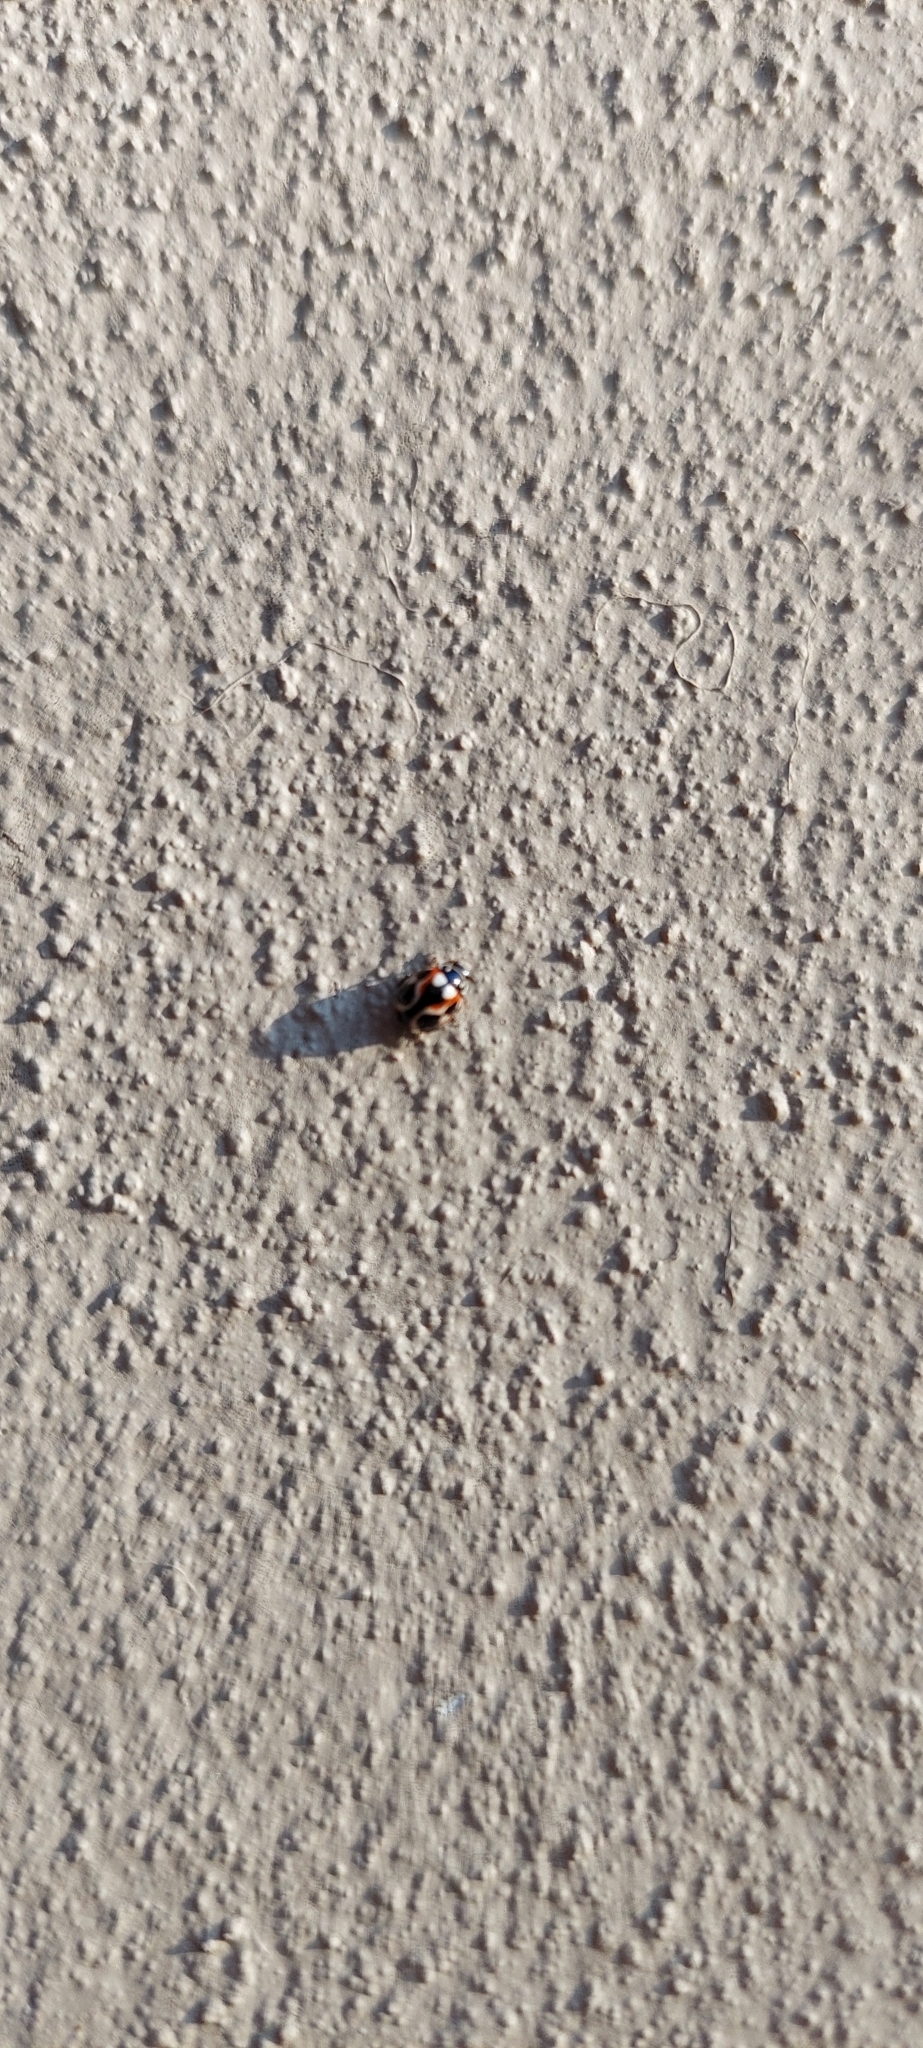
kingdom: Animalia
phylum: Arthropoda
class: Insecta
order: Coleoptera
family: Coccinellidae
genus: Cycloneda
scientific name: Cycloneda ancoralis
